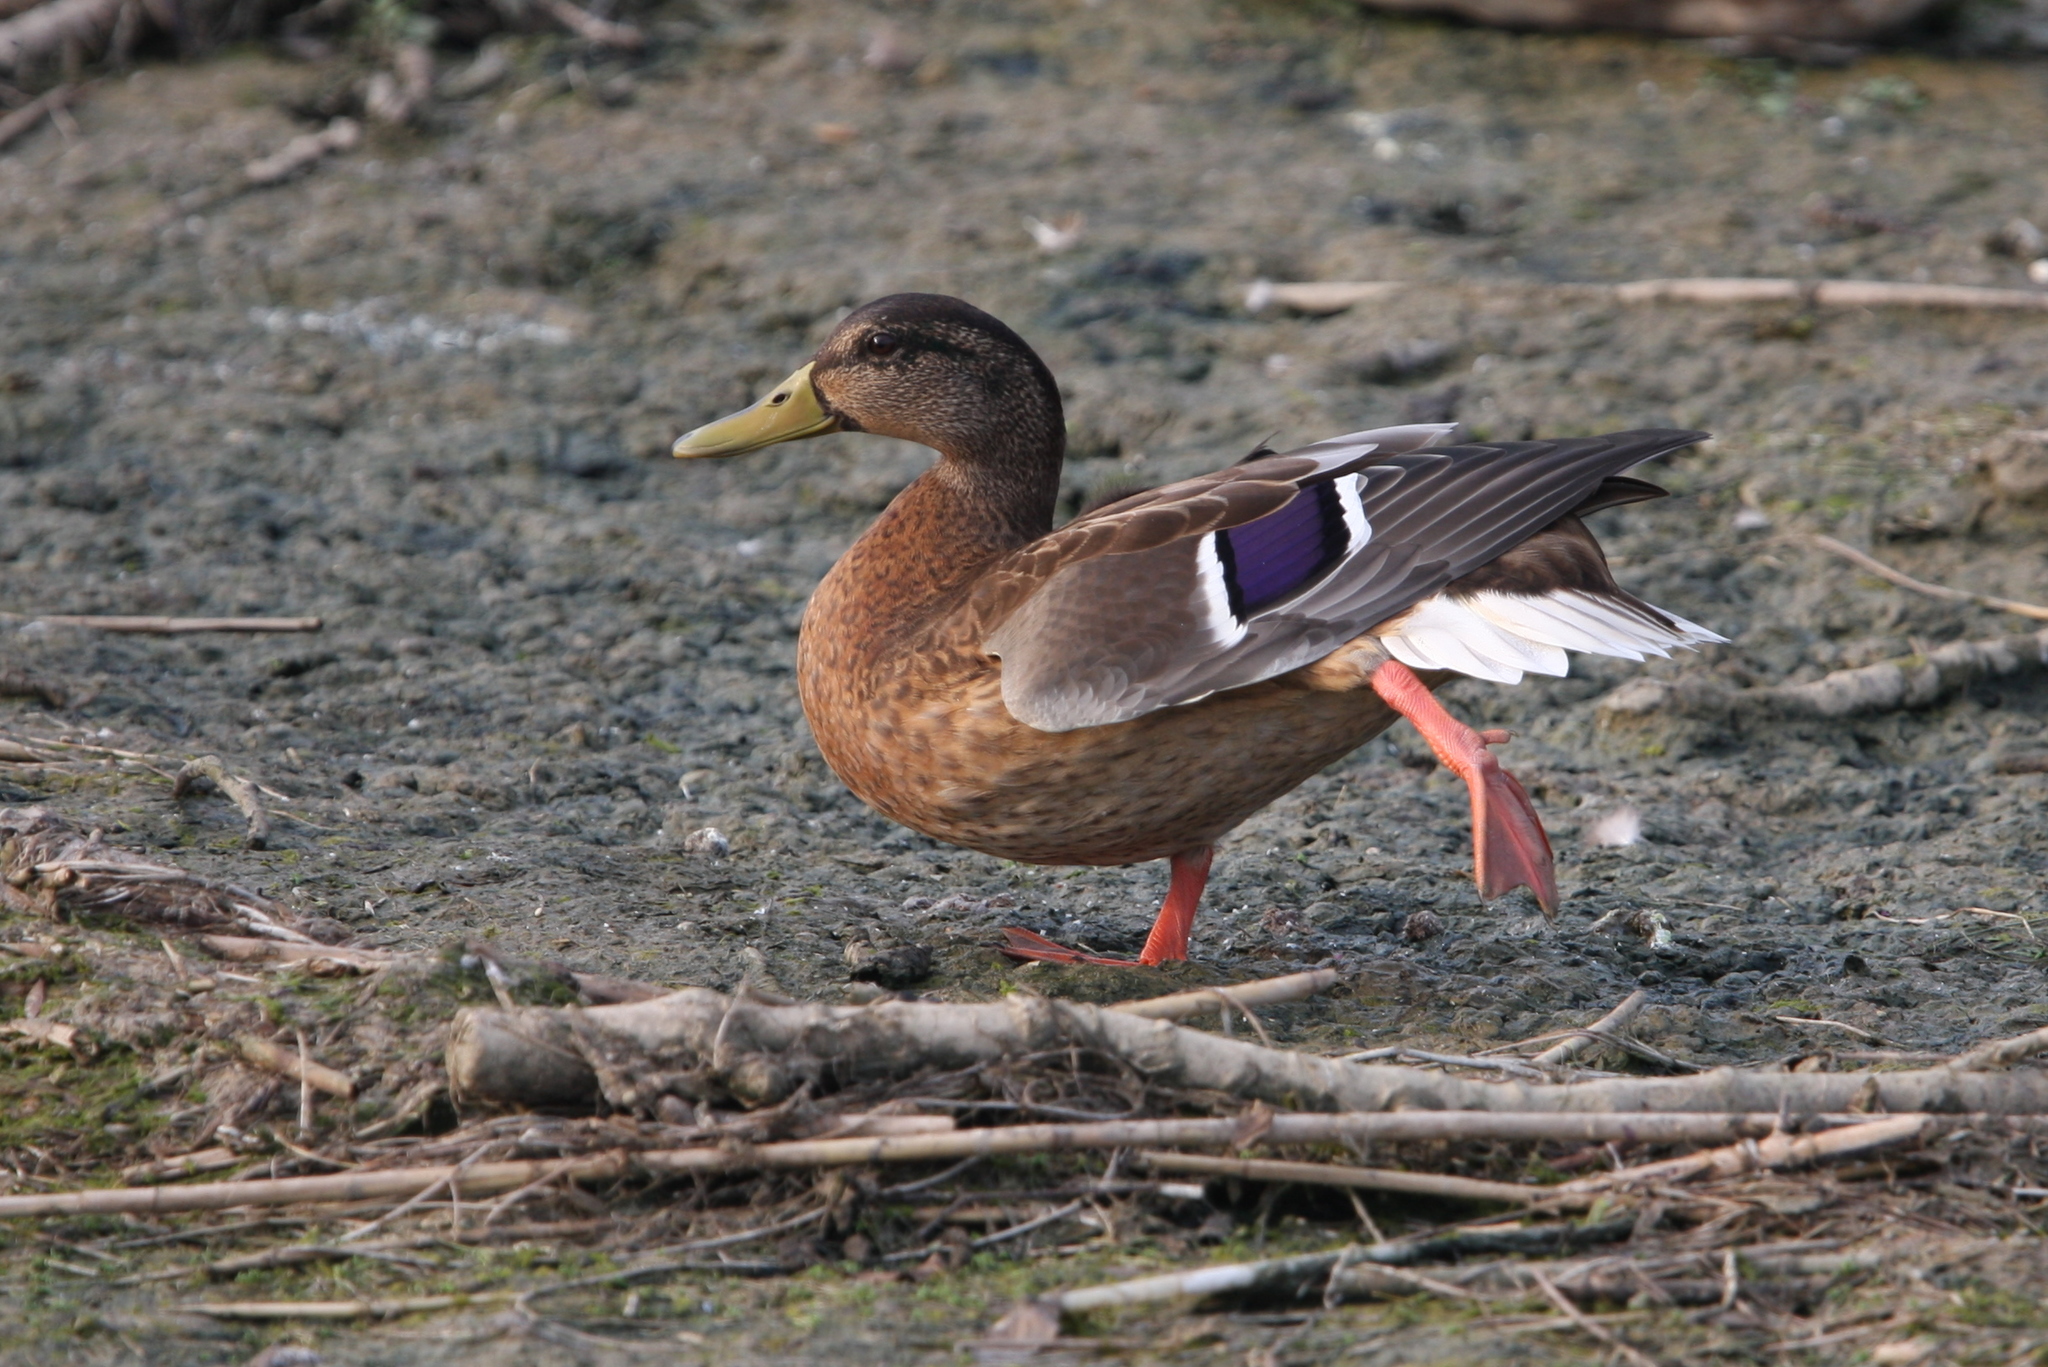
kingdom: Animalia
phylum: Chordata
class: Aves
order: Anseriformes
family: Anatidae
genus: Anas
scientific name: Anas platyrhynchos
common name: Mallard
